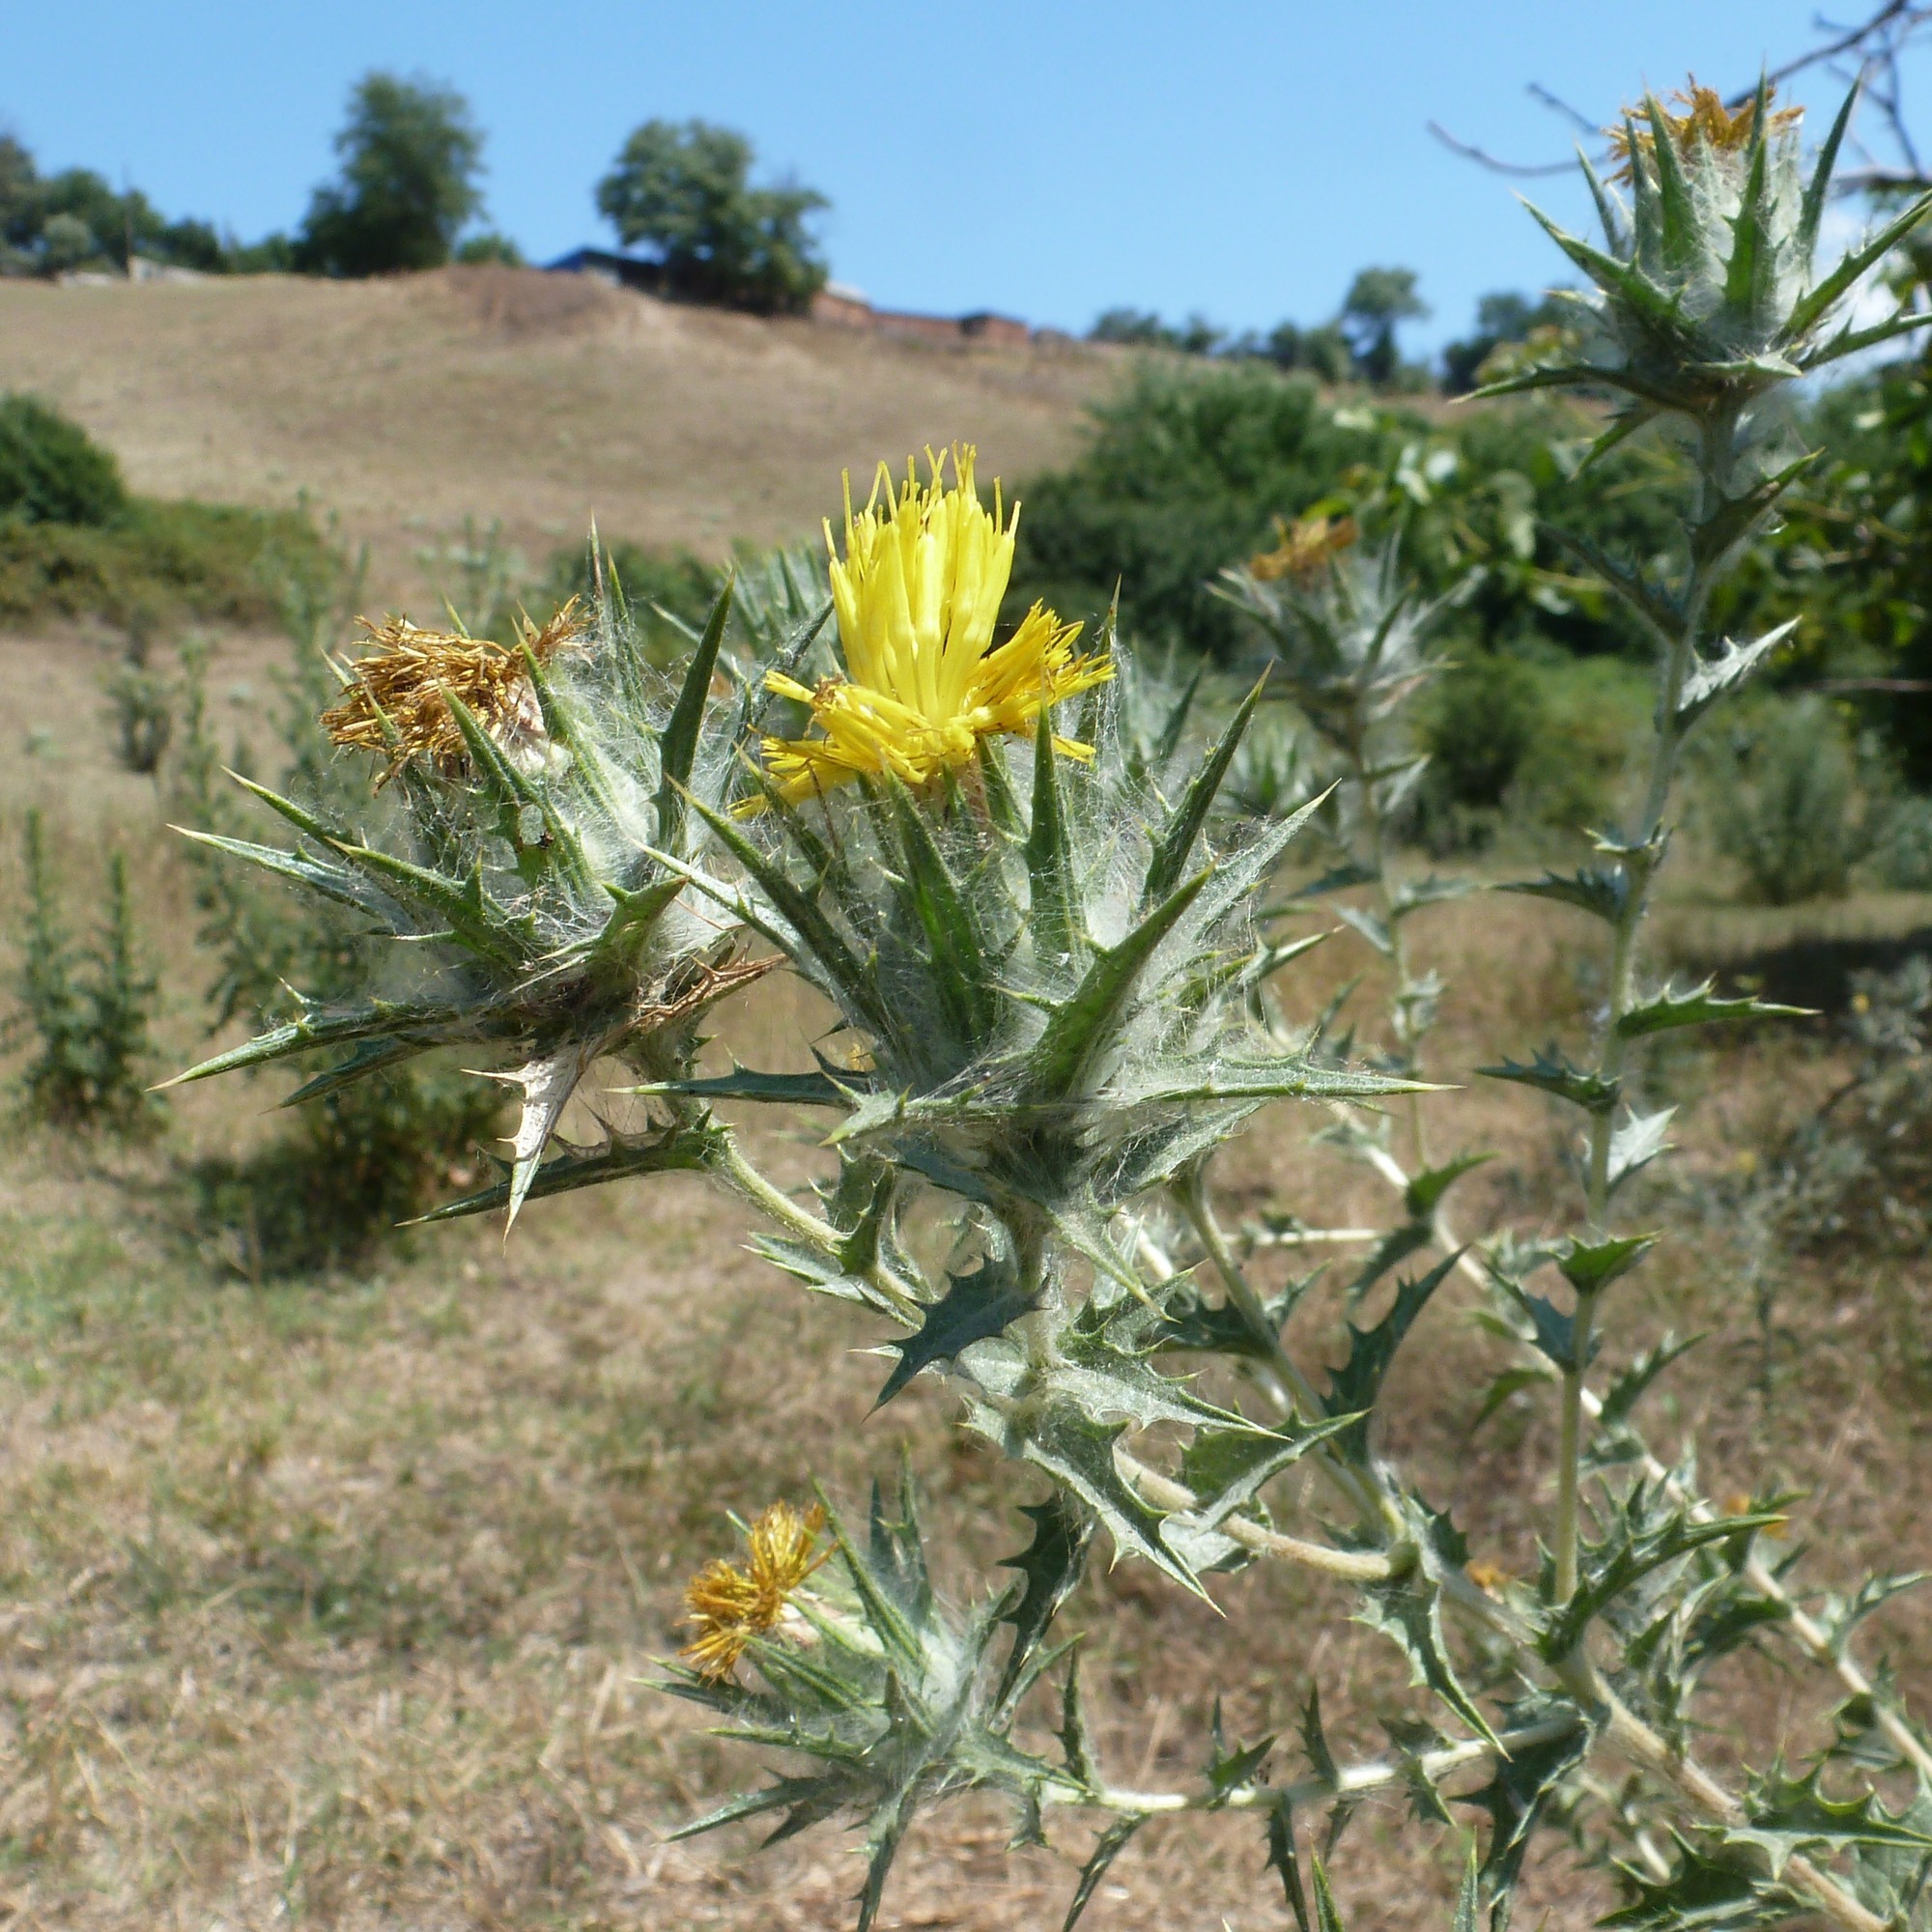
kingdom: Plantae
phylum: Tracheophyta
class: Magnoliopsida
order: Asterales
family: Asteraceae
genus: Carthamus
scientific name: Carthamus lanatus
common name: Downy safflower
